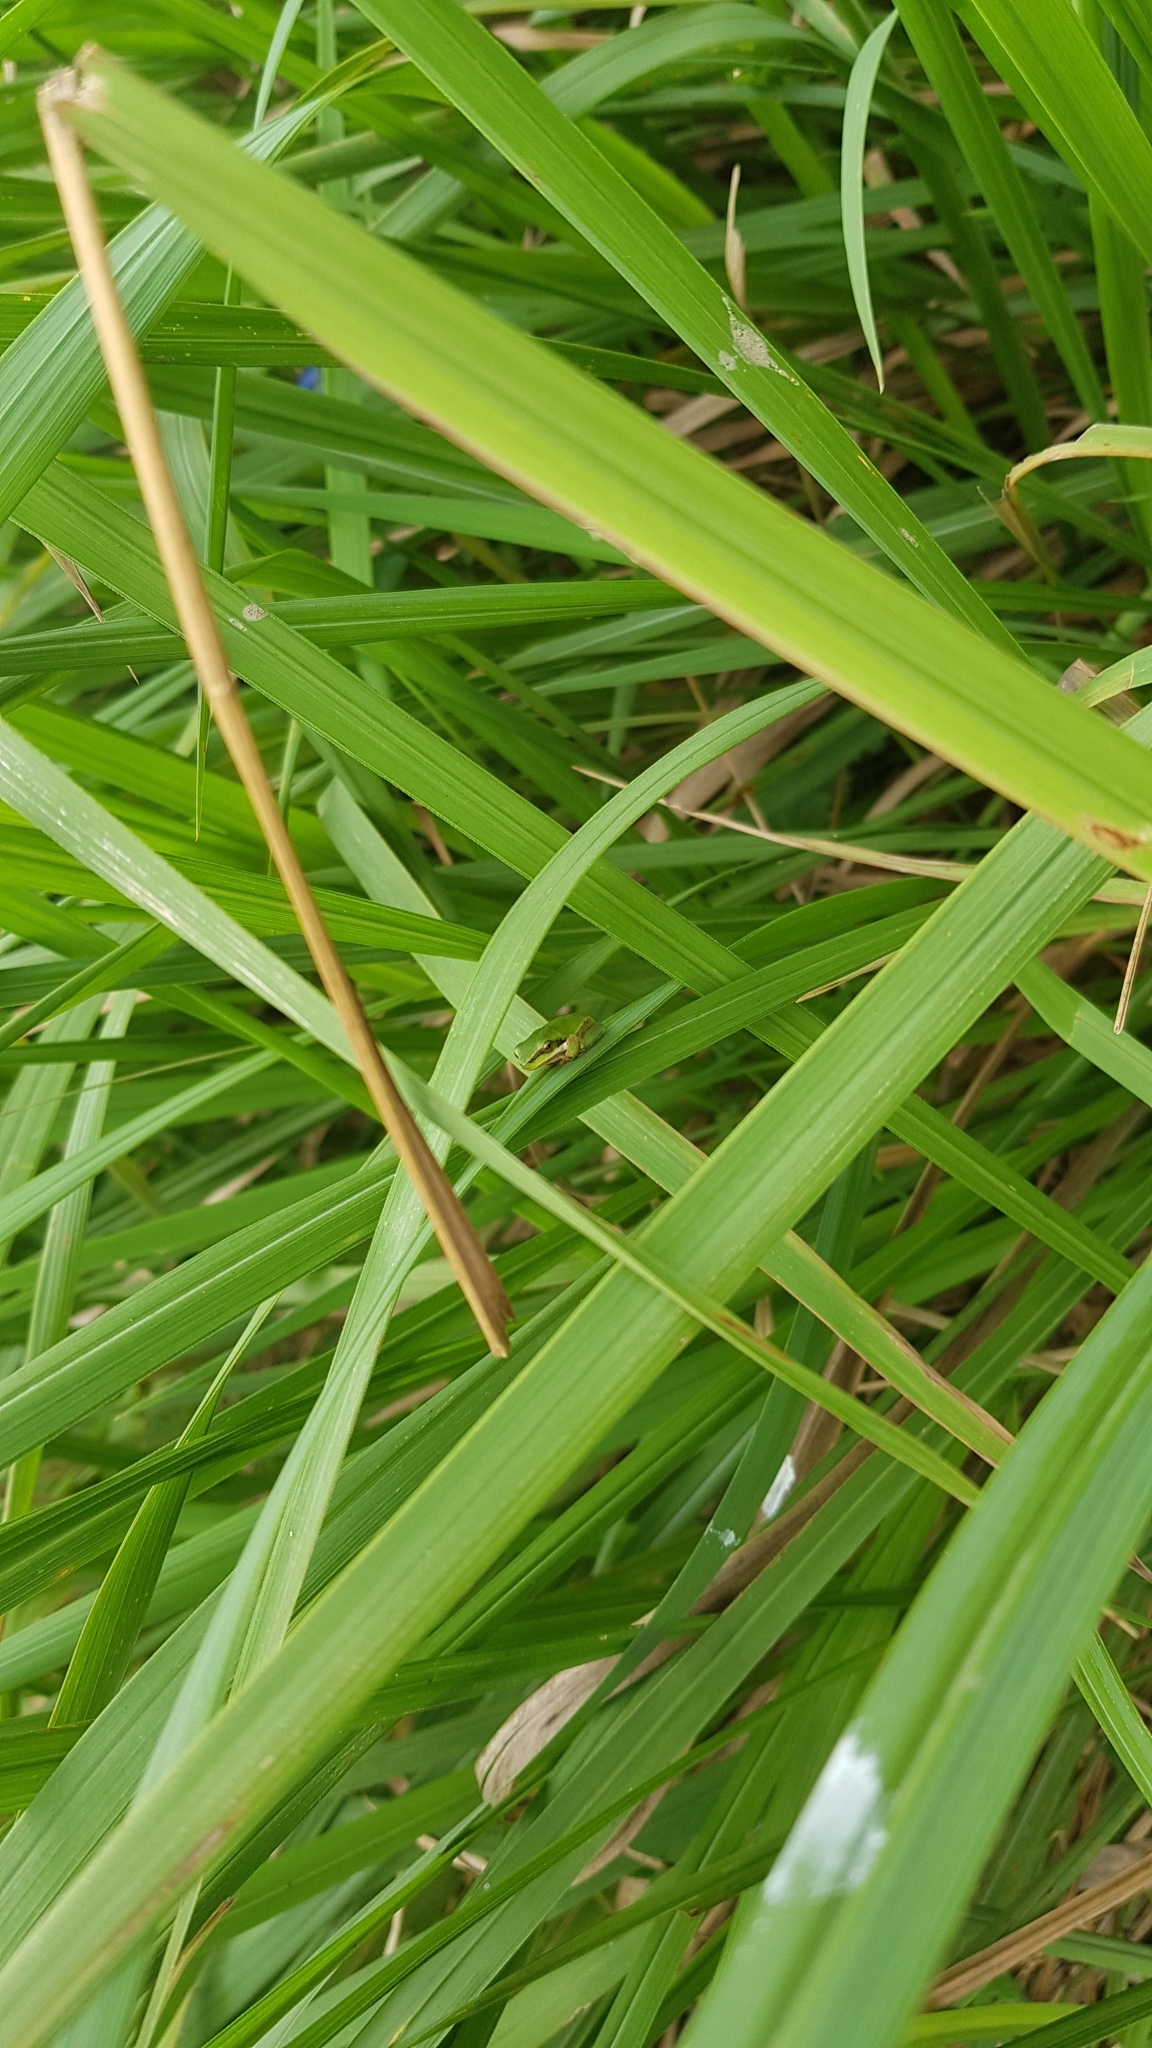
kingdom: Animalia
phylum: Chordata
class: Amphibia
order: Anura
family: Pelodryadidae
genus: Litoria
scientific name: Litoria fallax
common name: Eastern dwarf treefrog
